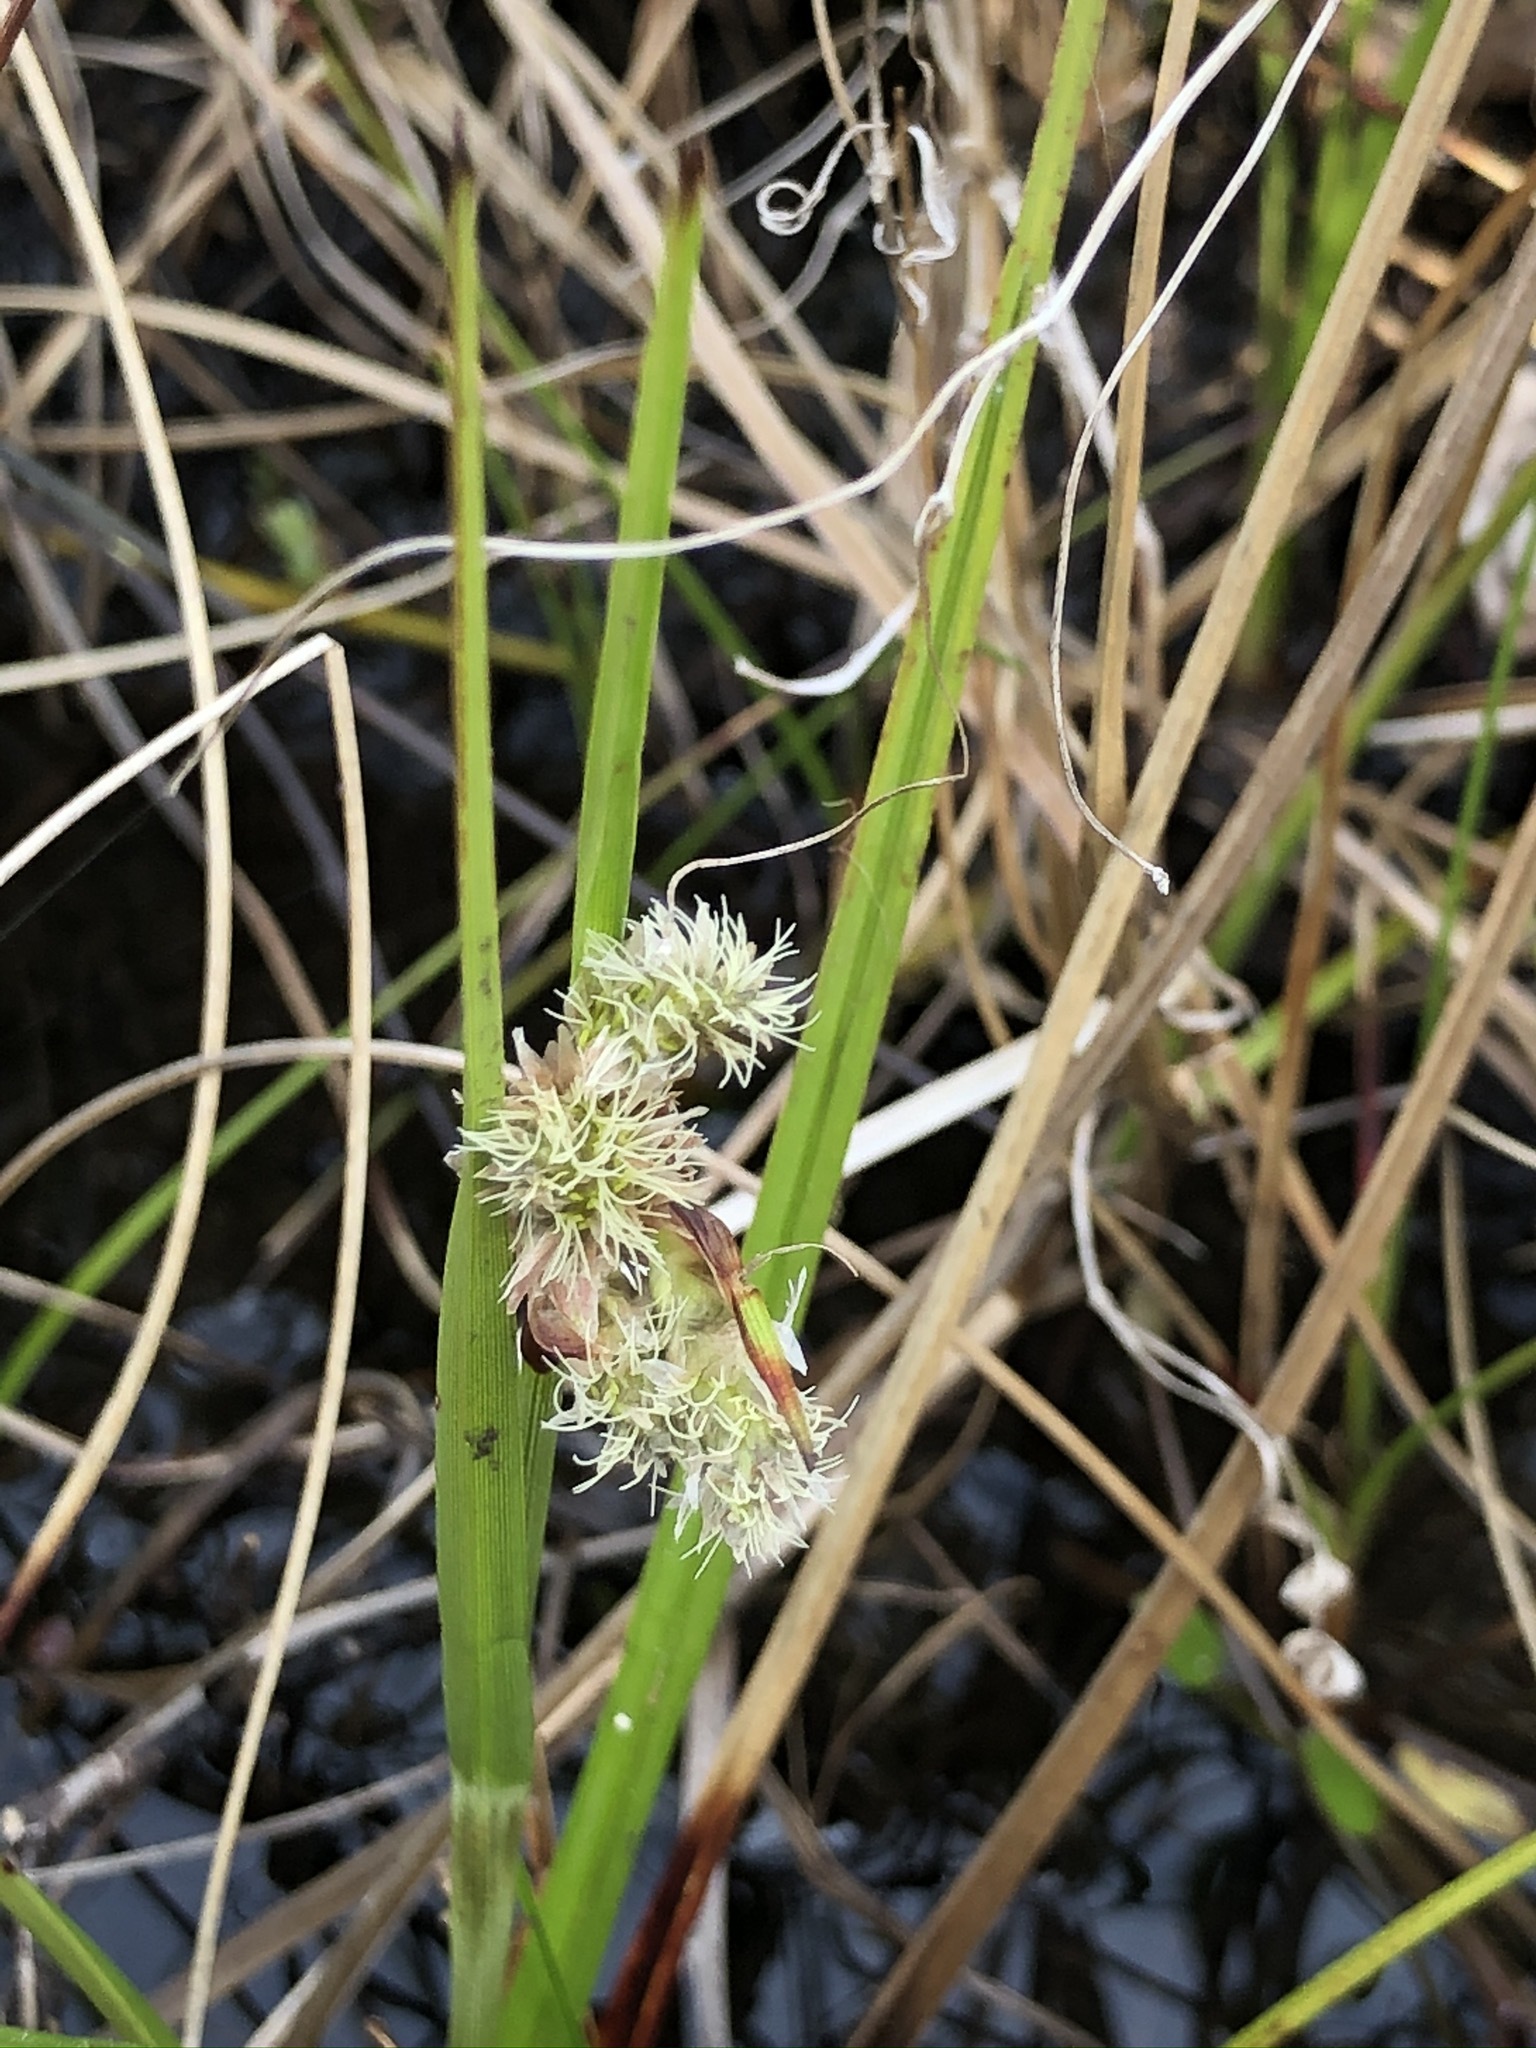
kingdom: Plantae
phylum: Tracheophyta
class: Liliopsida
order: Poales
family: Cyperaceae
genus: Eriophorum
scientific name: Eriophorum latifolium
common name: Broad-leaved cottongrass
